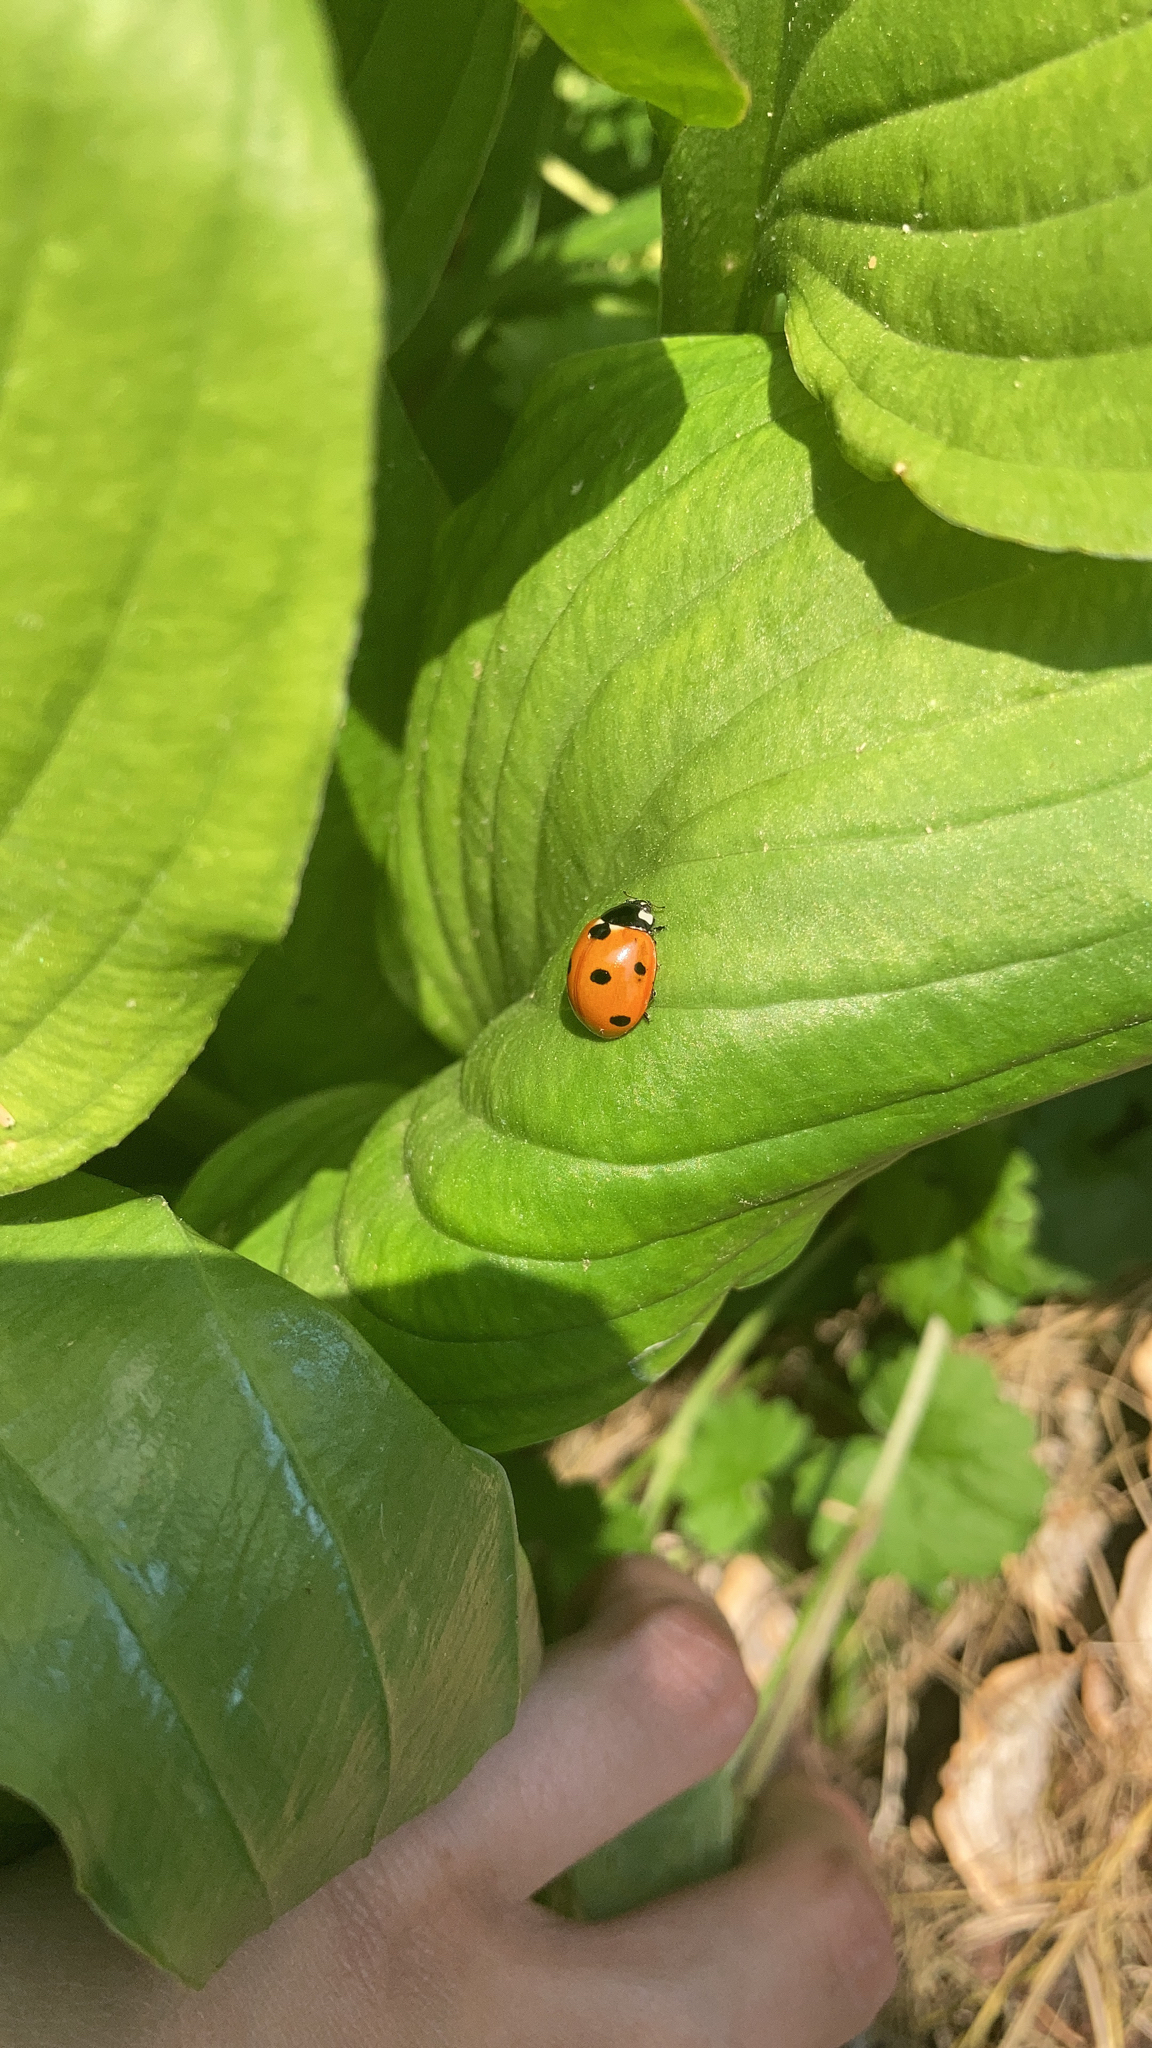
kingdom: Animalia
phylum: Arthropoda
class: Insecta
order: Coleoptera
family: Coccinellidae
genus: Coccinella
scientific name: Coccinella septempunctata
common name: Sevenspotted lady beetle
